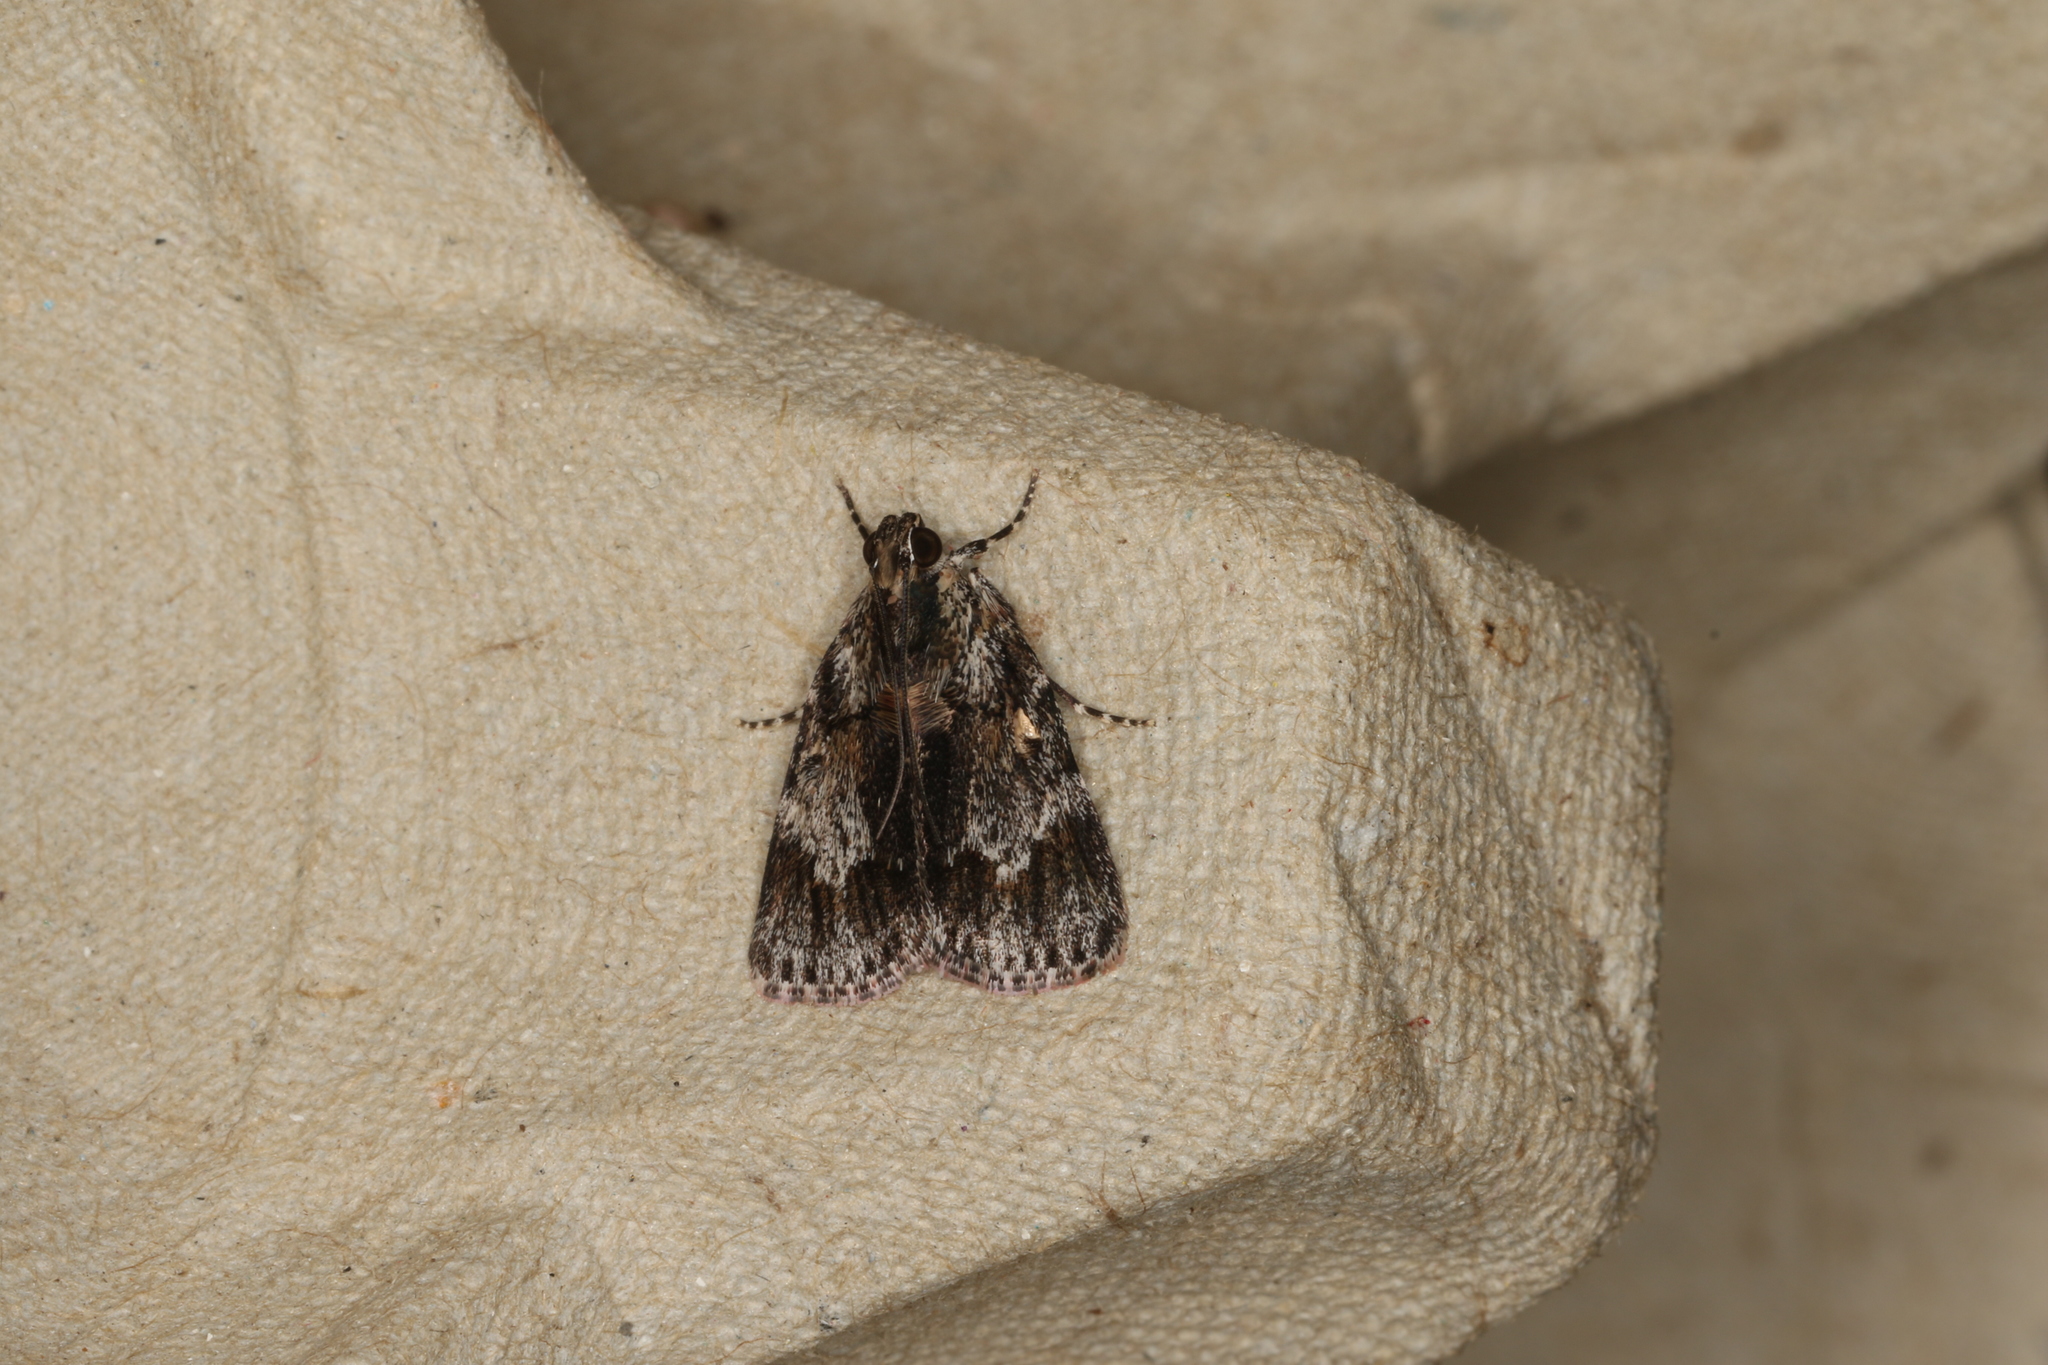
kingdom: Animalia
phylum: Arthropoda
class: Insecta
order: Lepidoptera
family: Pyralidae
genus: Spectrotrota
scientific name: Spectrotrota fimbrialis
